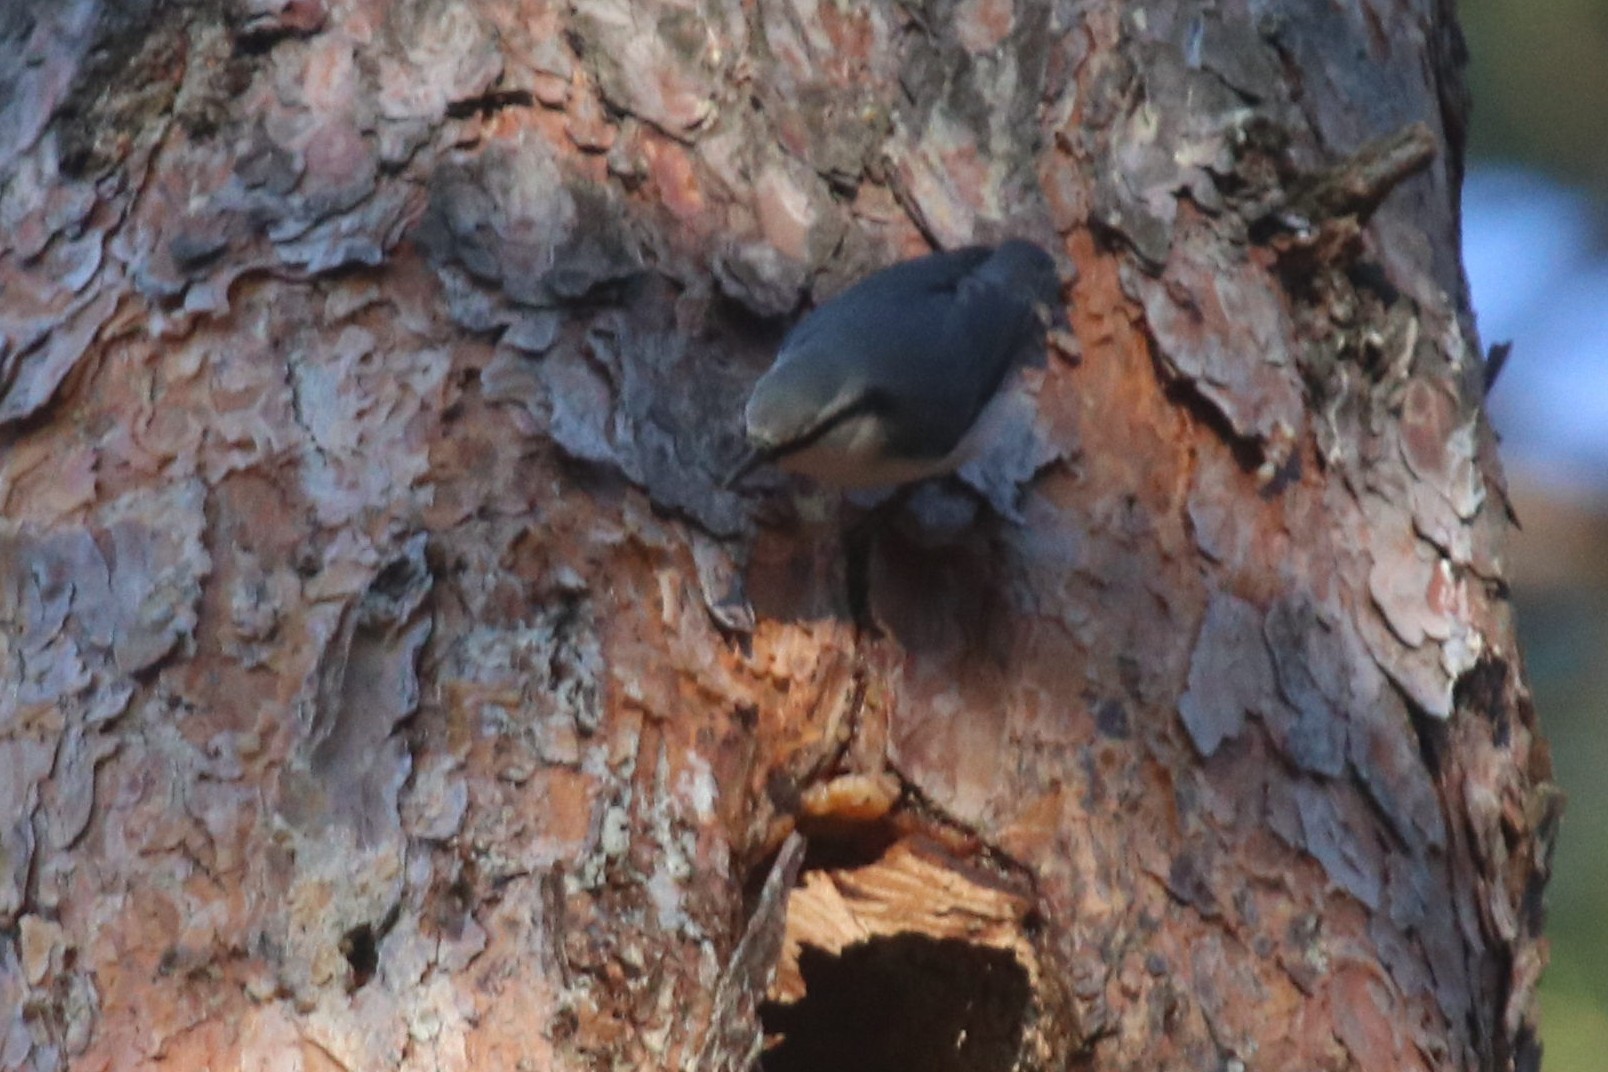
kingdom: Animalia
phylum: Chordata
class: Aves
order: Passeriformes
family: Sittidae
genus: Sitta
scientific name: Sitta europaea
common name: Eurasian nuthatch
